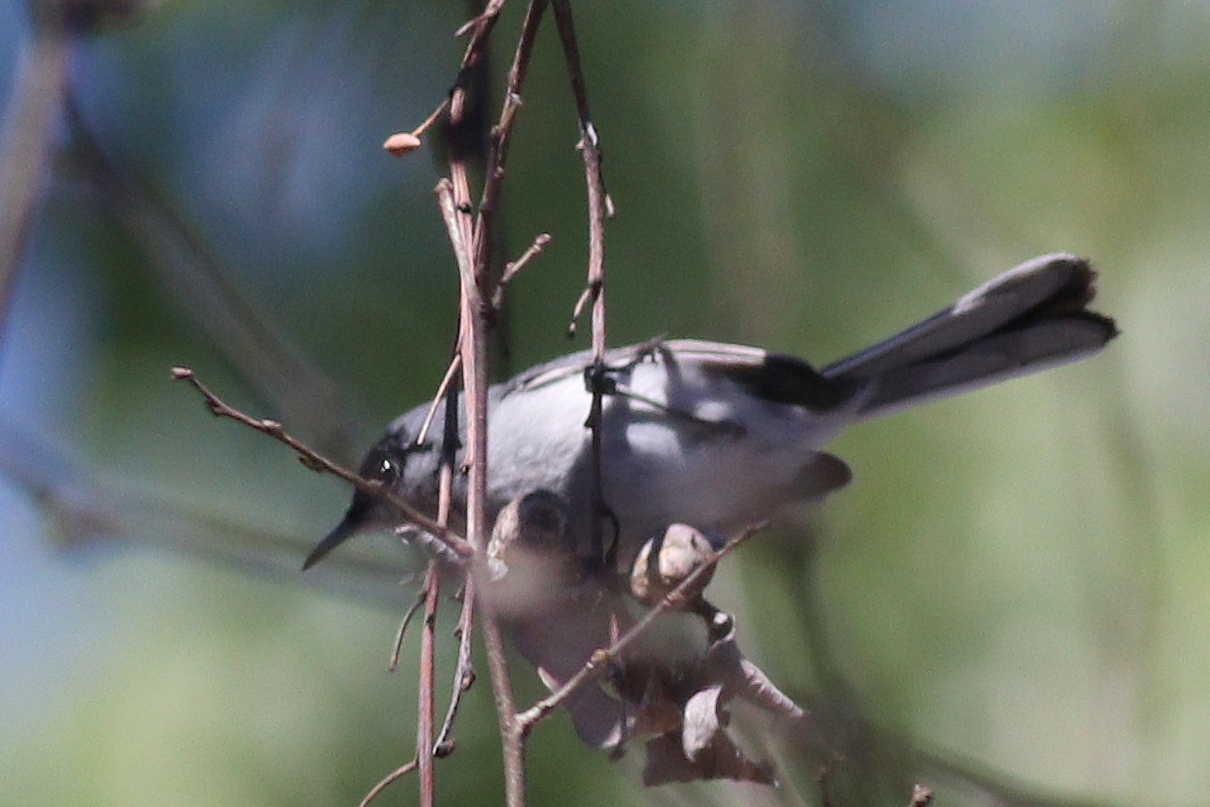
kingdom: Animalia
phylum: Chordata
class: Aves
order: Passeriformes
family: Polioptilidae
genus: Polioptila
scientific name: Polioptila nigriceps
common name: Black-capped gnatcatcher
